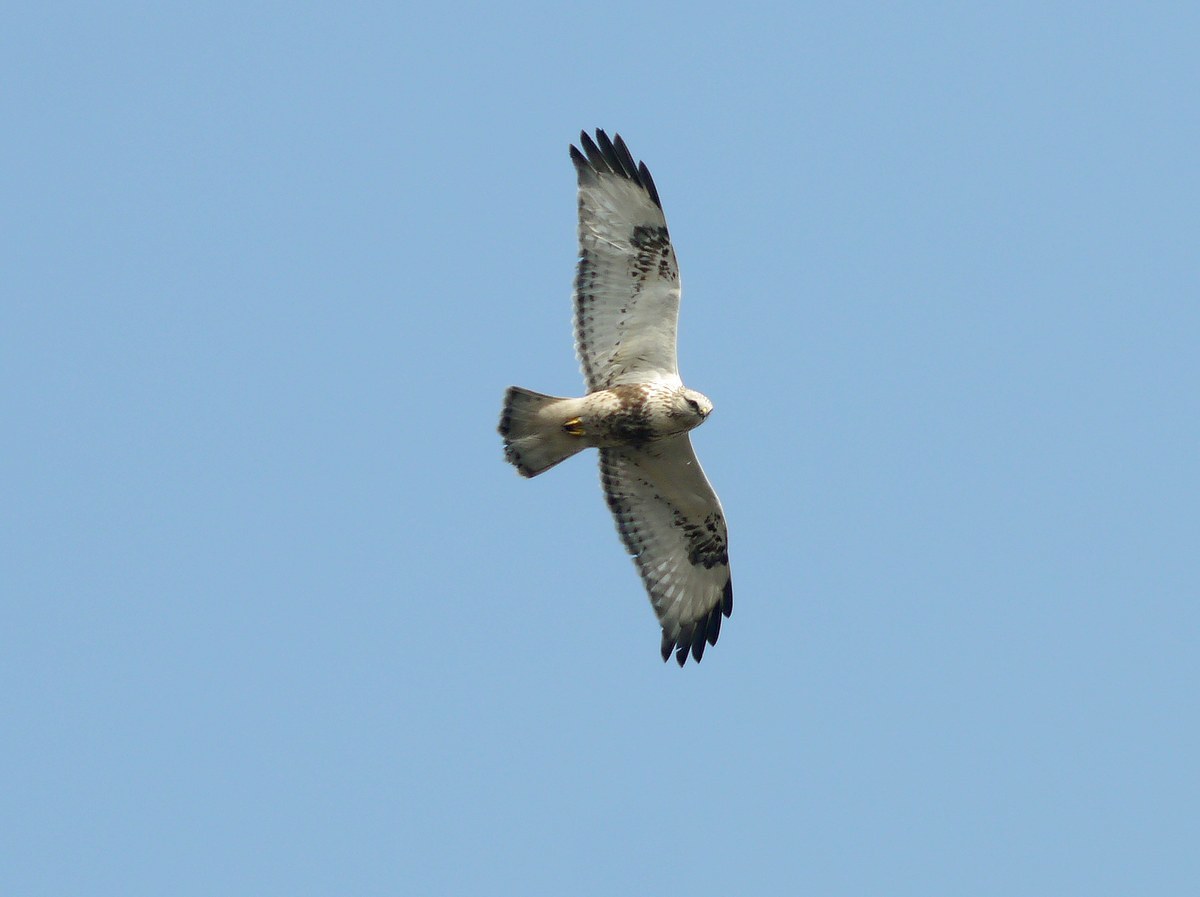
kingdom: Animalia
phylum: Chordata
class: Aves
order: Accipitriformes
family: Accipitridae
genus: Buteo
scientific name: Buteo lagopus
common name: Rough-legged buzzard
